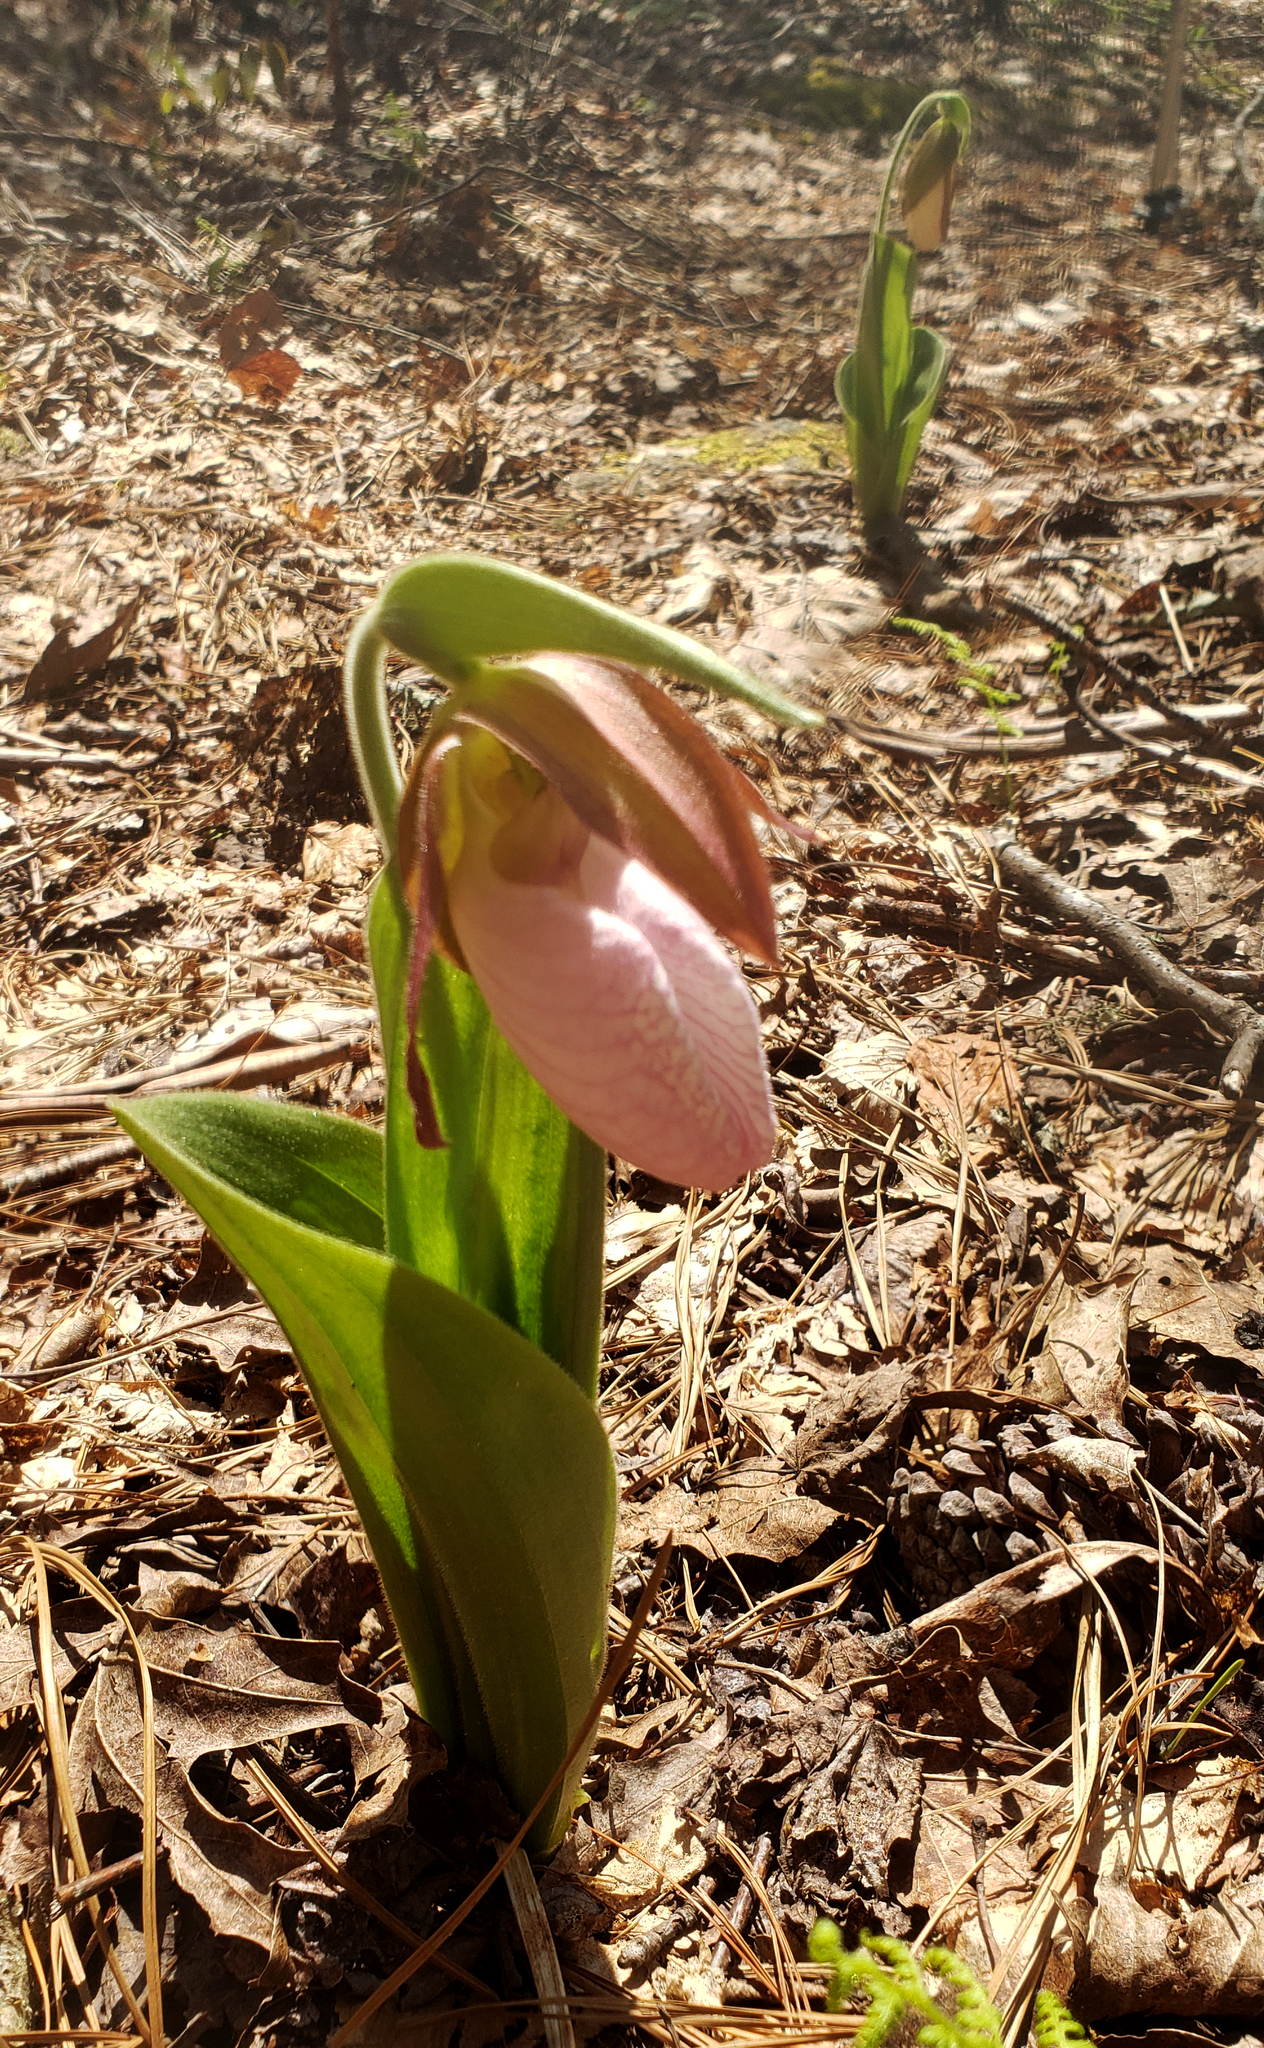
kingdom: Plantae
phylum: Tracheophyta
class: Liliopsida
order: Asparagales
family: Orchidaceae
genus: Cypripedium
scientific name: Cypripedium acaule
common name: Pink lady's-slipper
